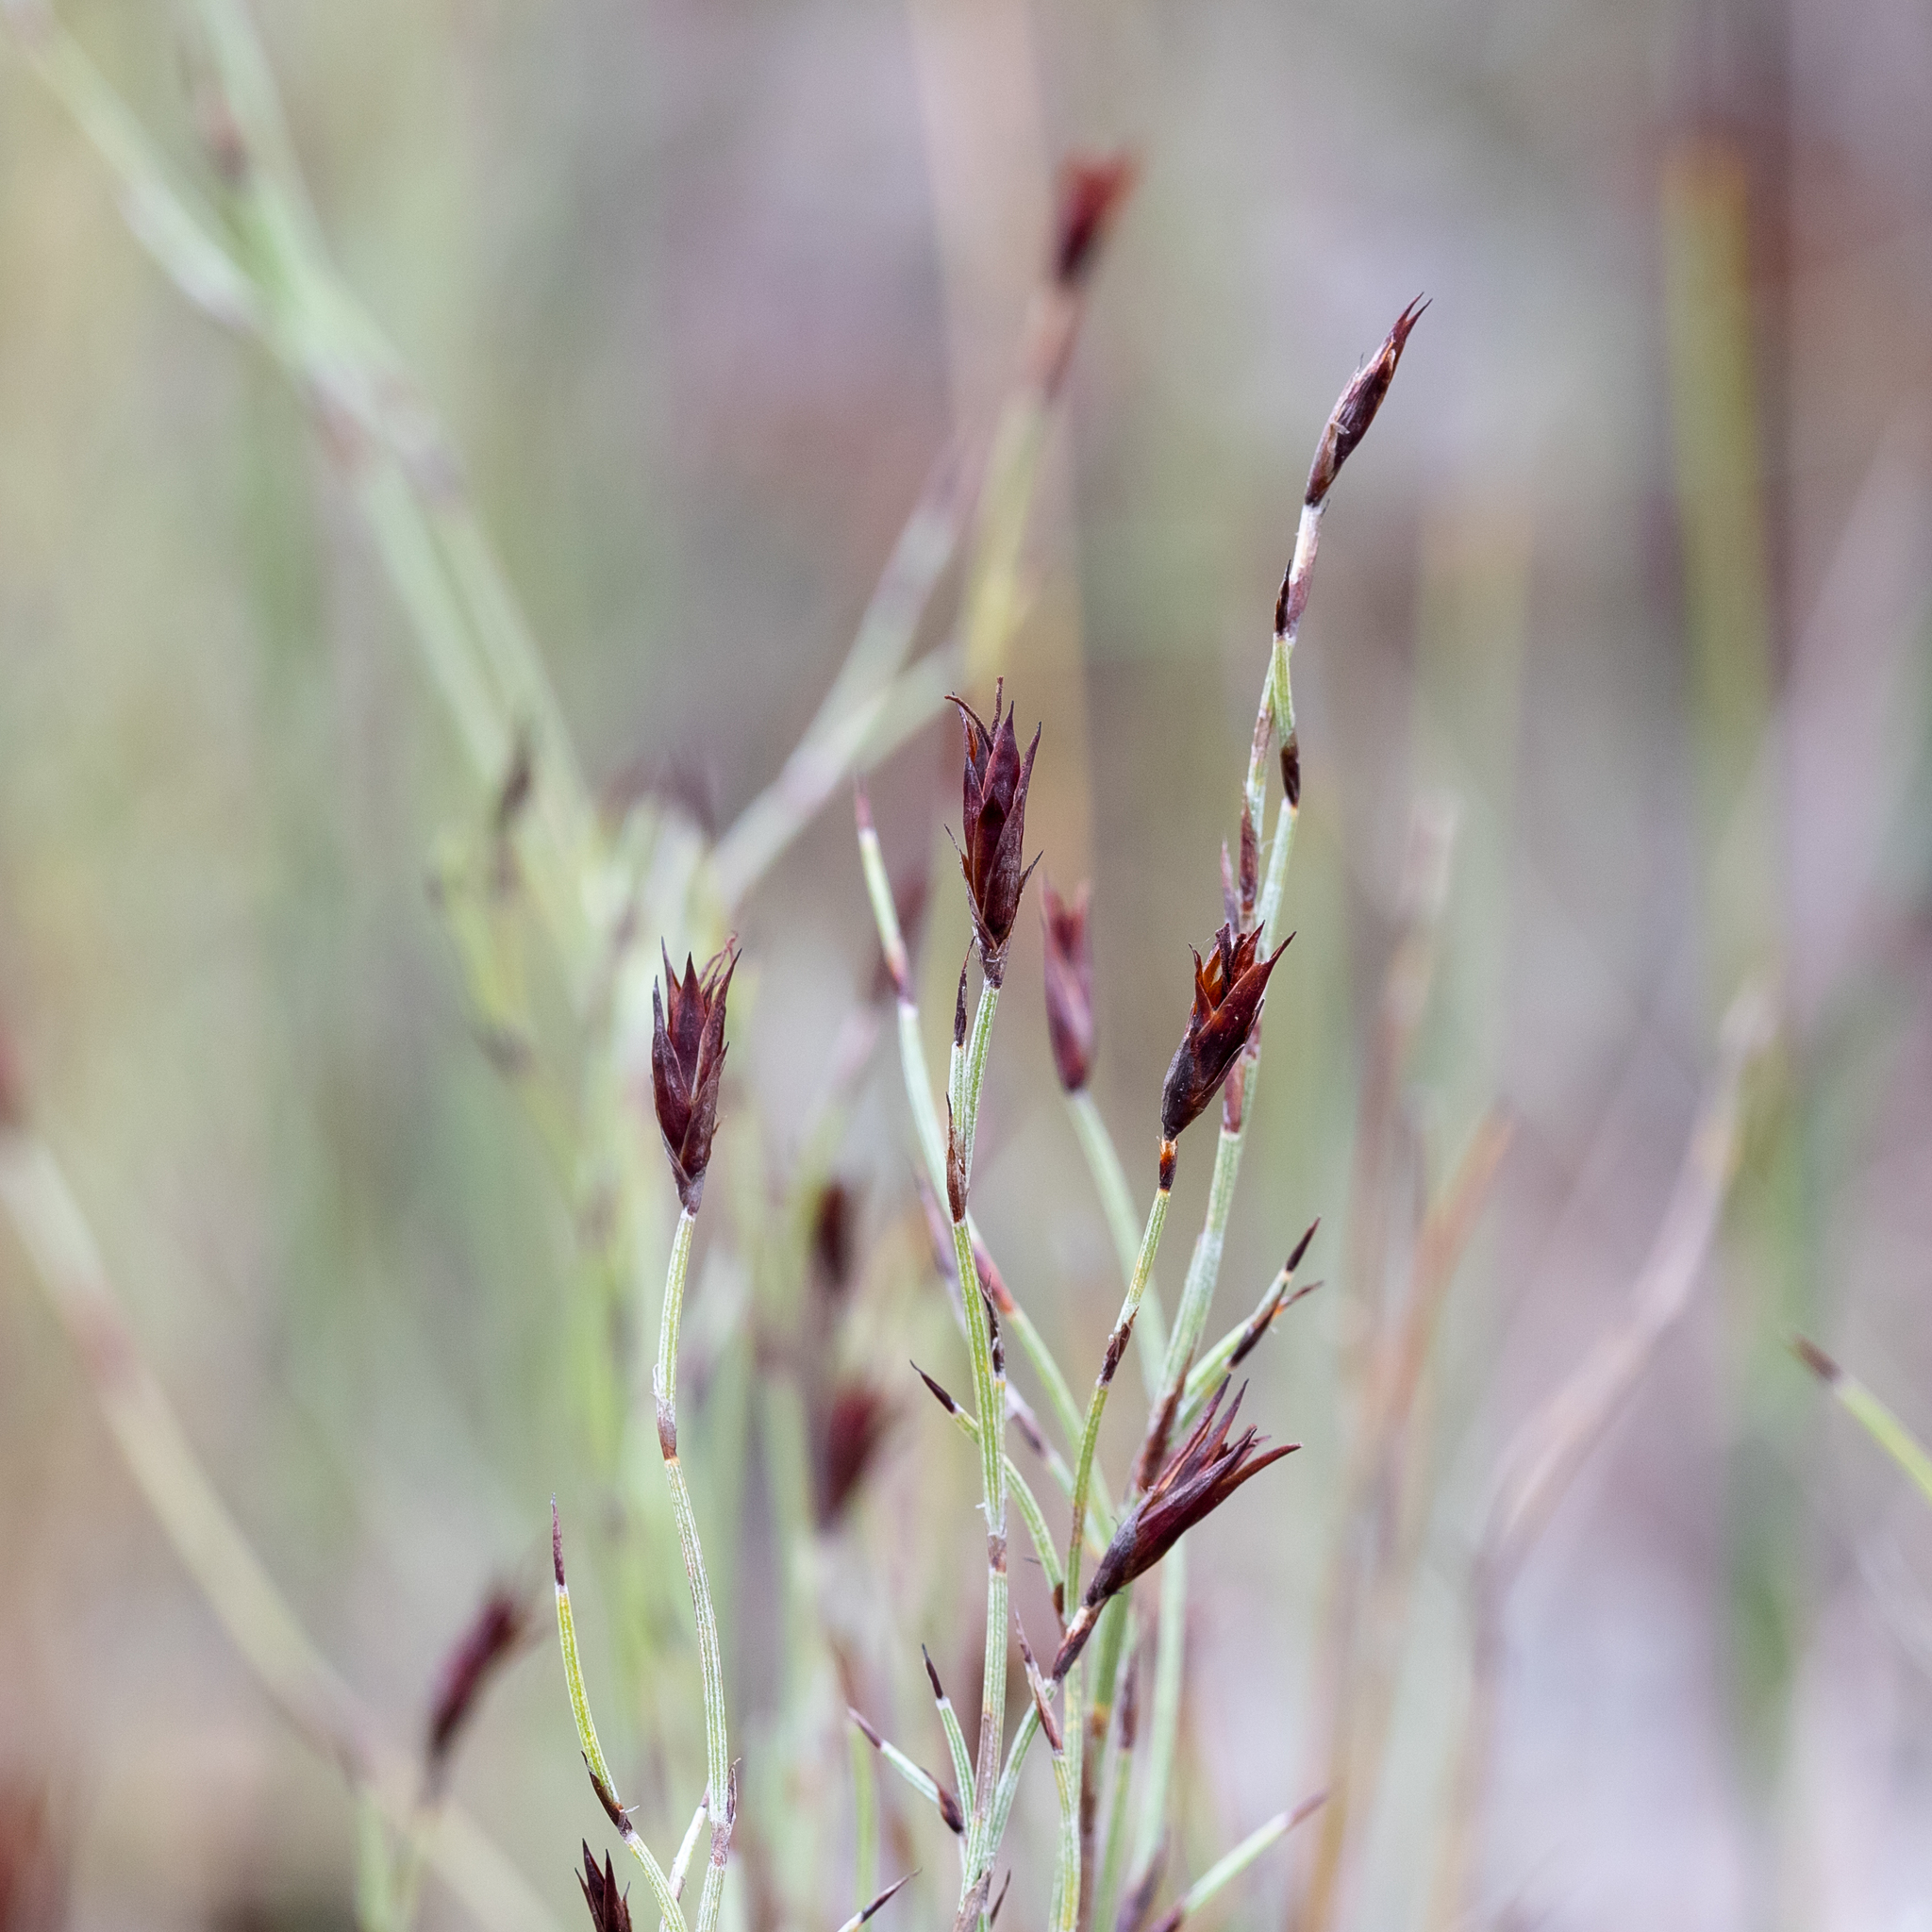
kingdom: Plantae
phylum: Tracheophyta
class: Liliopsida
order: Poales
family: Restionaceae
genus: Hypolaena
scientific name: Hypolaena fastigiata
